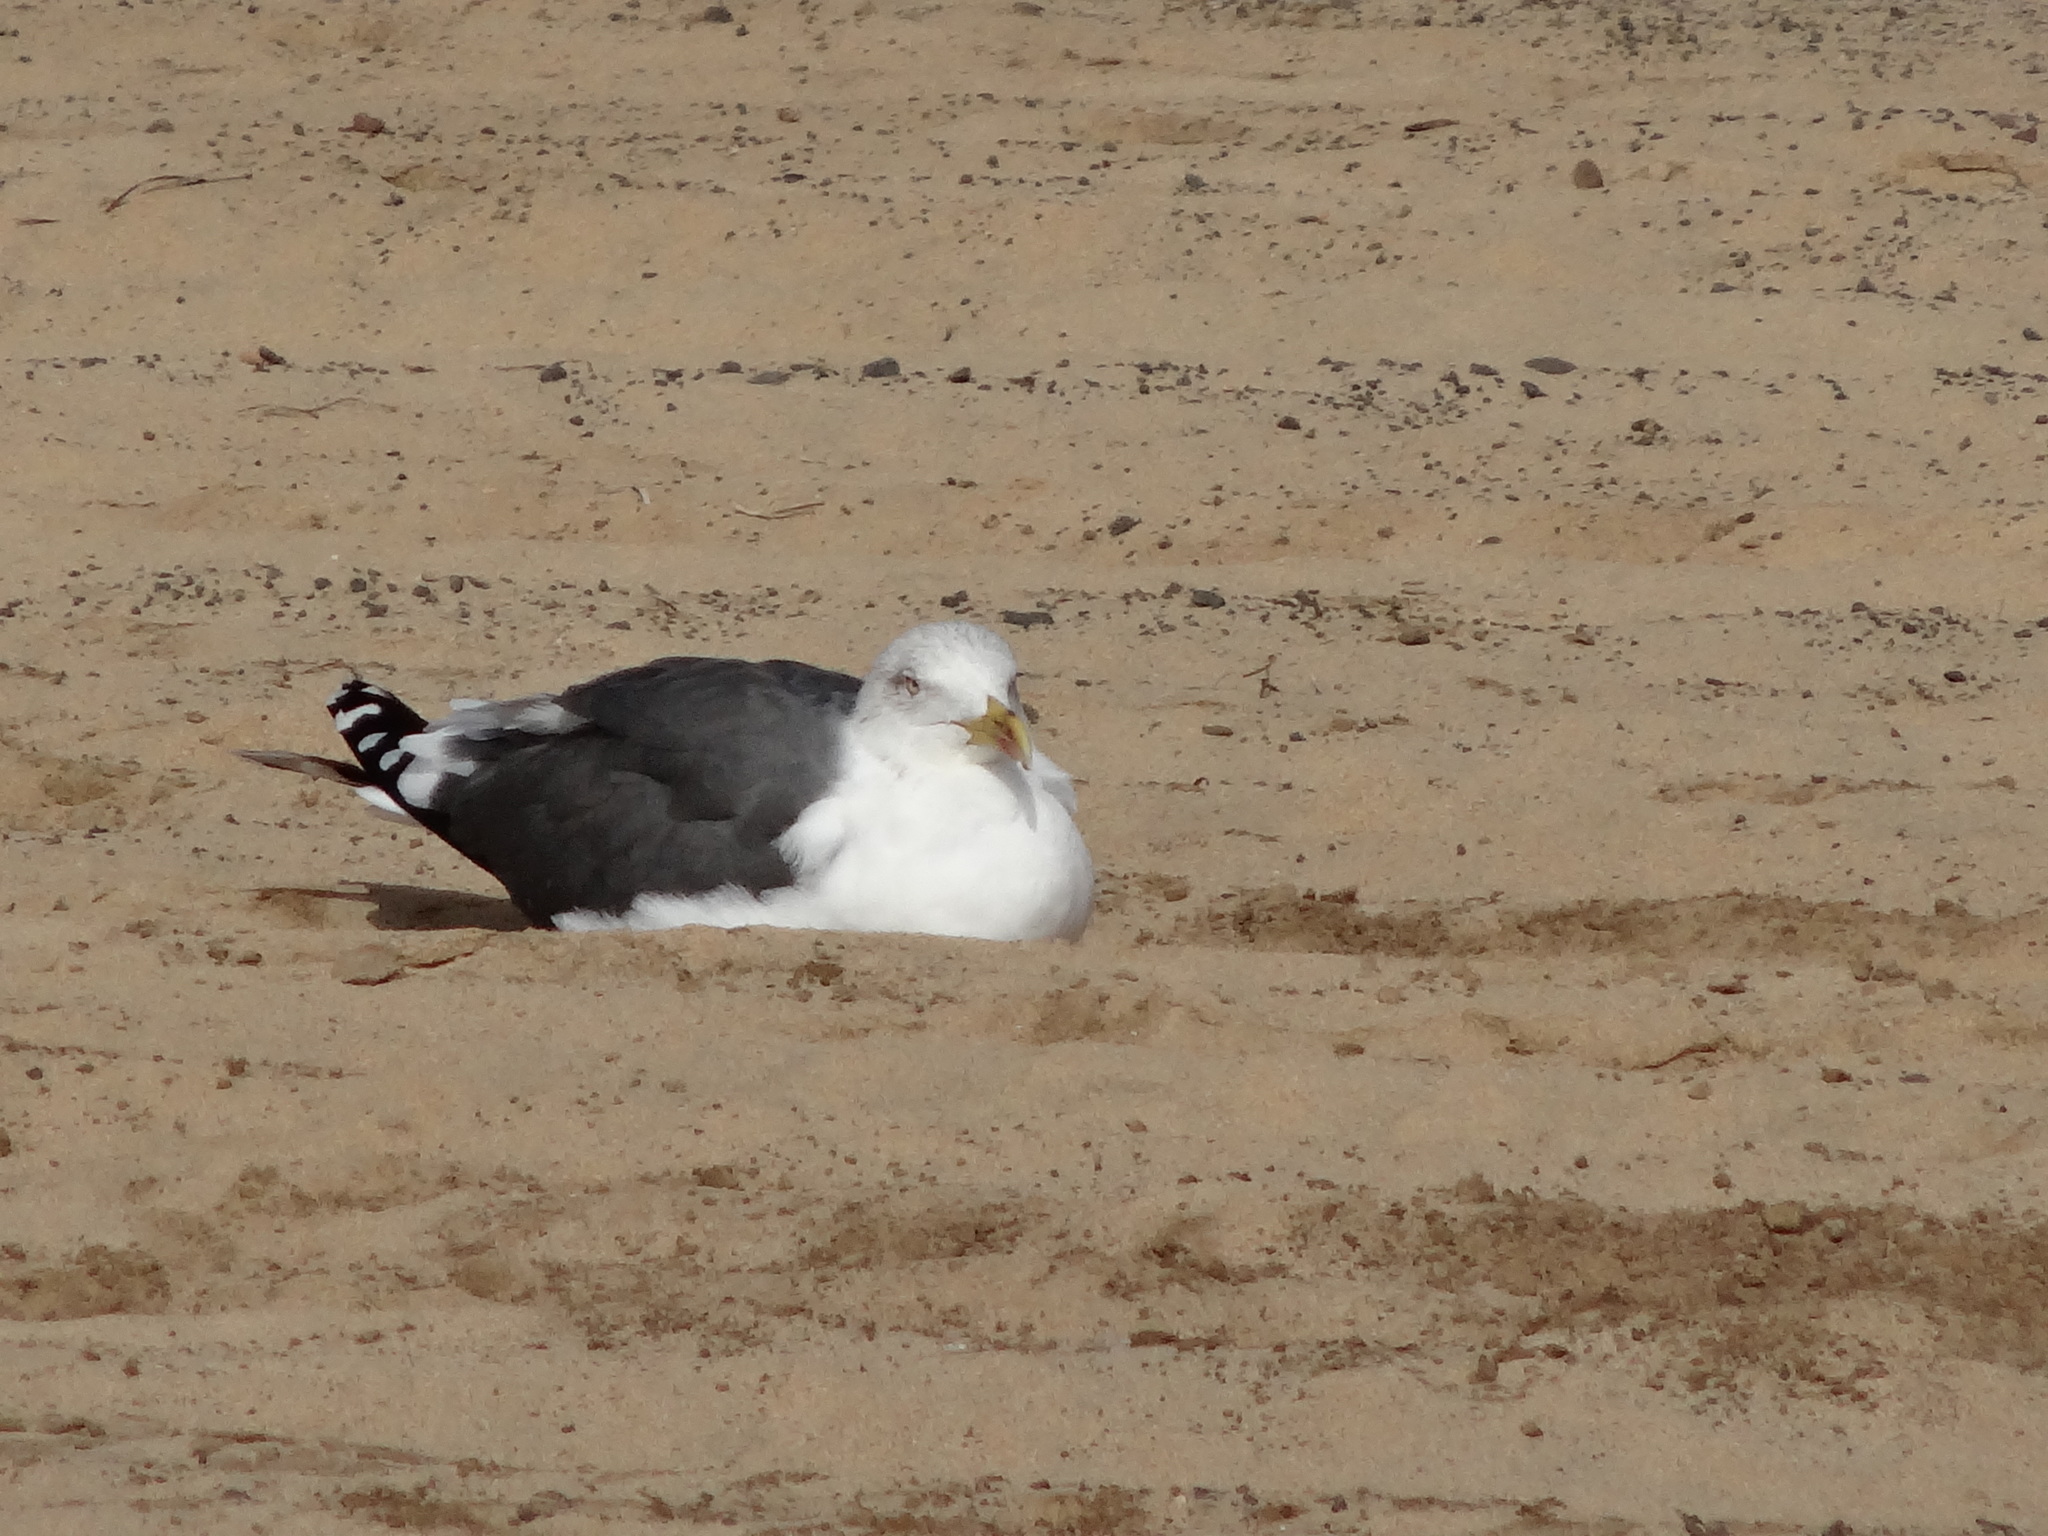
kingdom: Animalia
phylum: Chordata
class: Aves
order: Charadriiformes
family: Laridae
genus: Larus
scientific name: Larus fuscus
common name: Lesser black-backed gull
